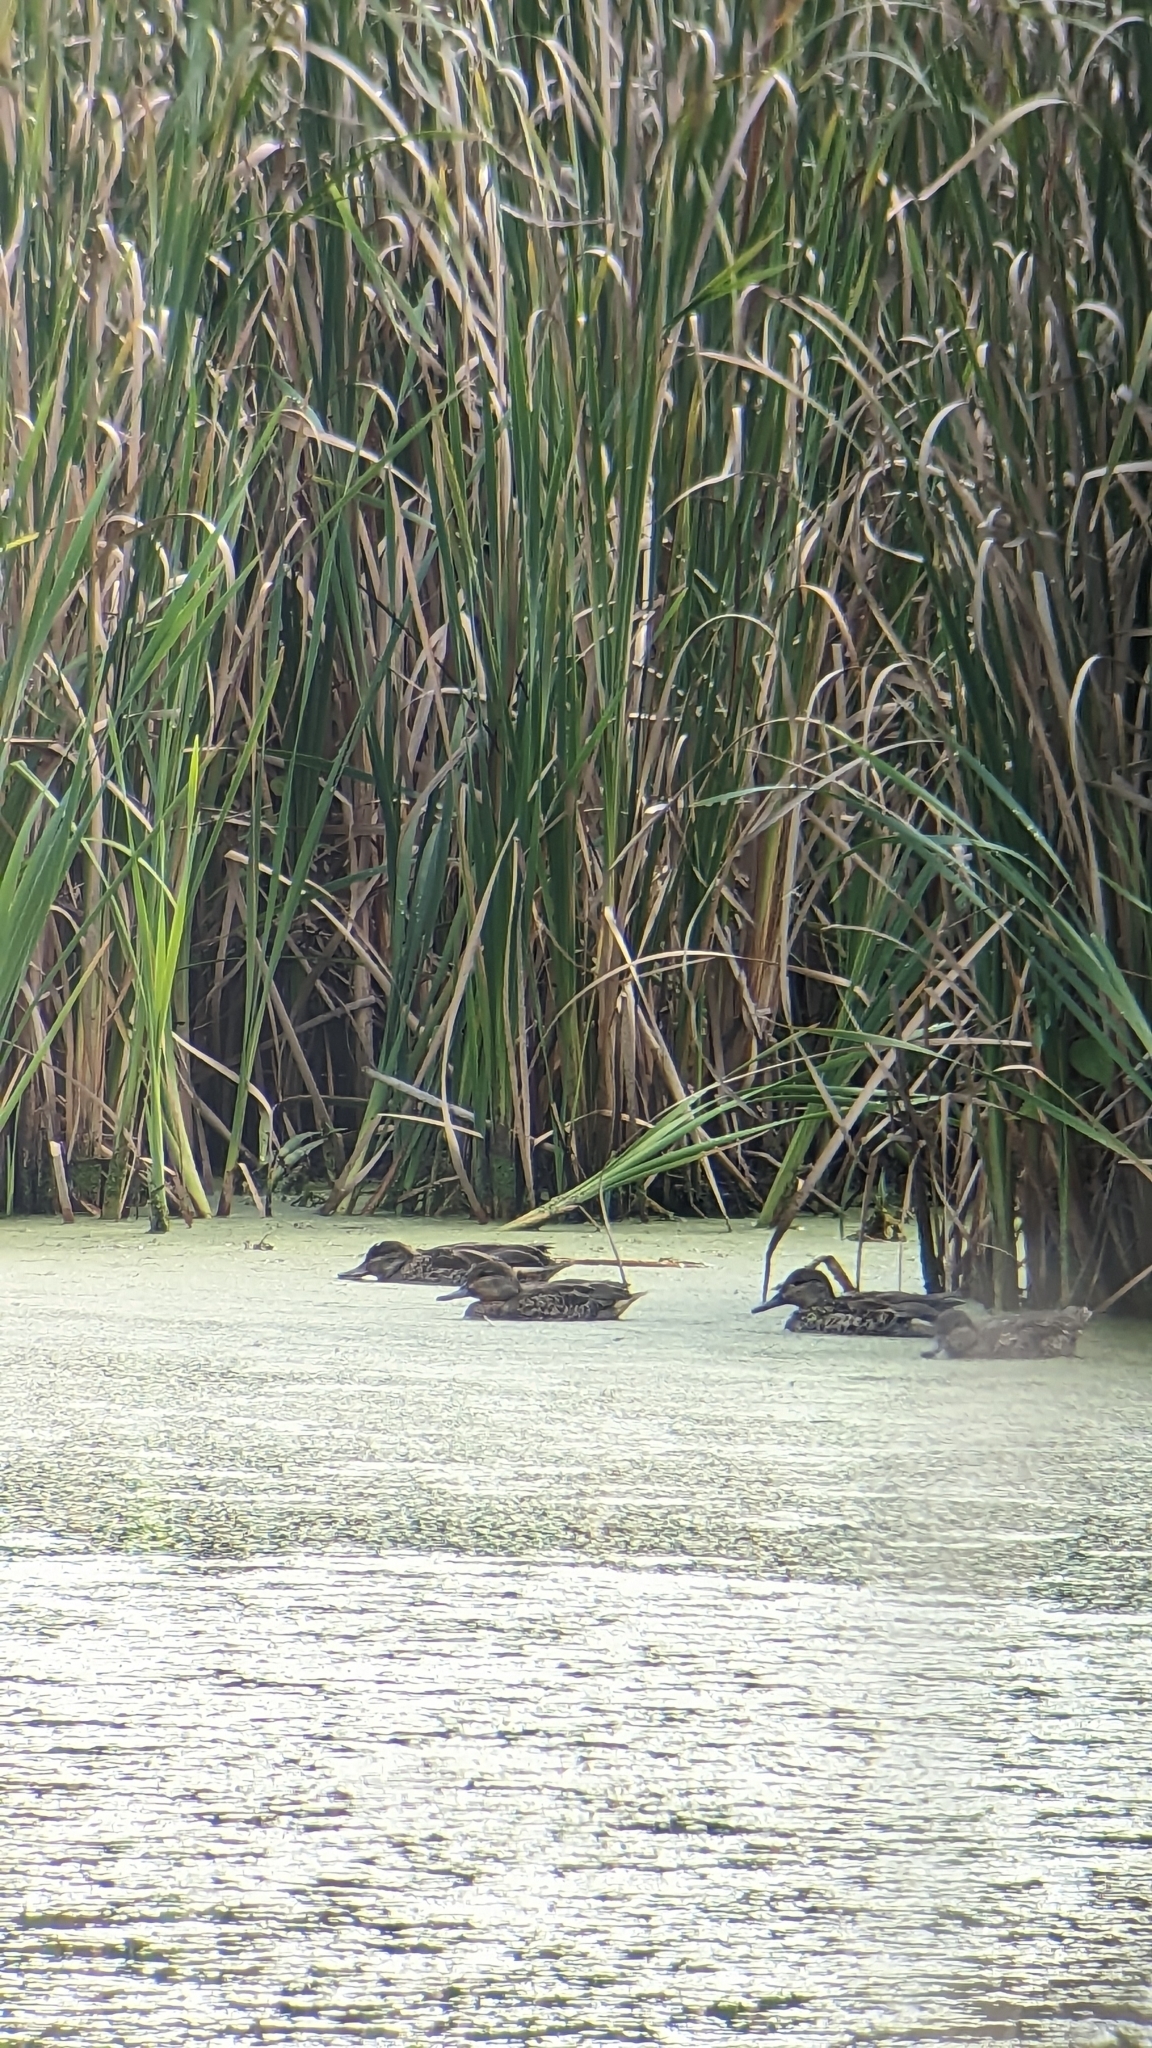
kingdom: Animalia
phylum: Chordata
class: Aves
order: Anseriformes
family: Anatidae
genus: Anas
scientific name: Anas crecca
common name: Eurasian teal
